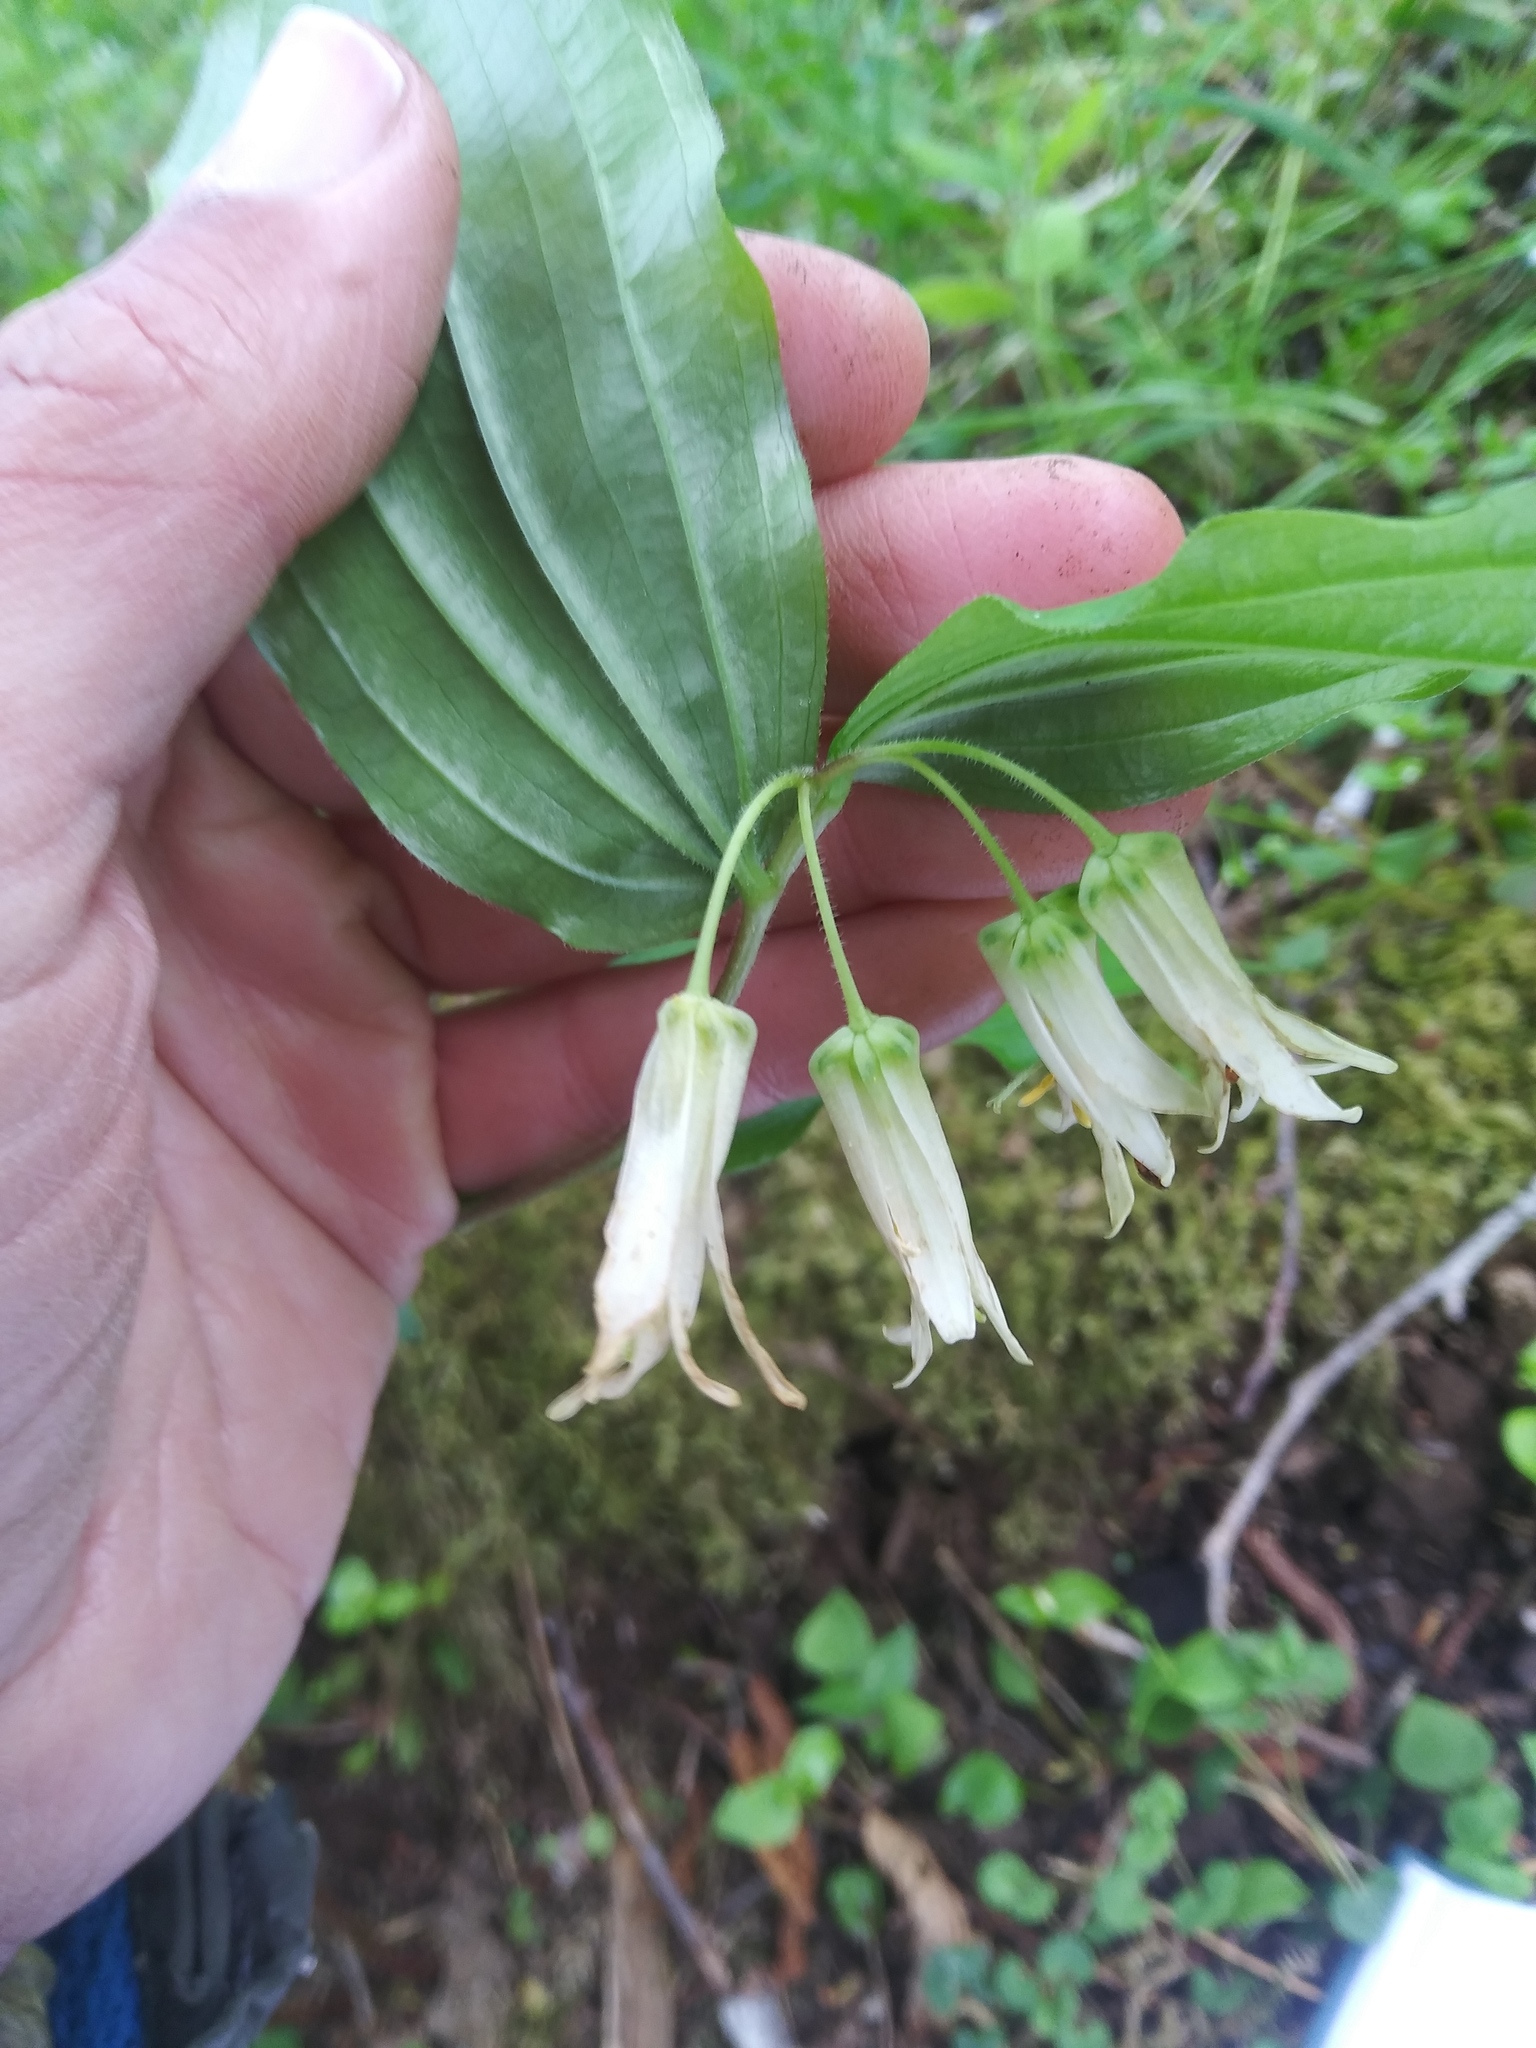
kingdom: Plantae
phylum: Tracheophyta
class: Liliopsida
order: Liliales
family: Liliaceae
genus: Prosartes
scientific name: Prosartes smithii
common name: Fairy-lantern
